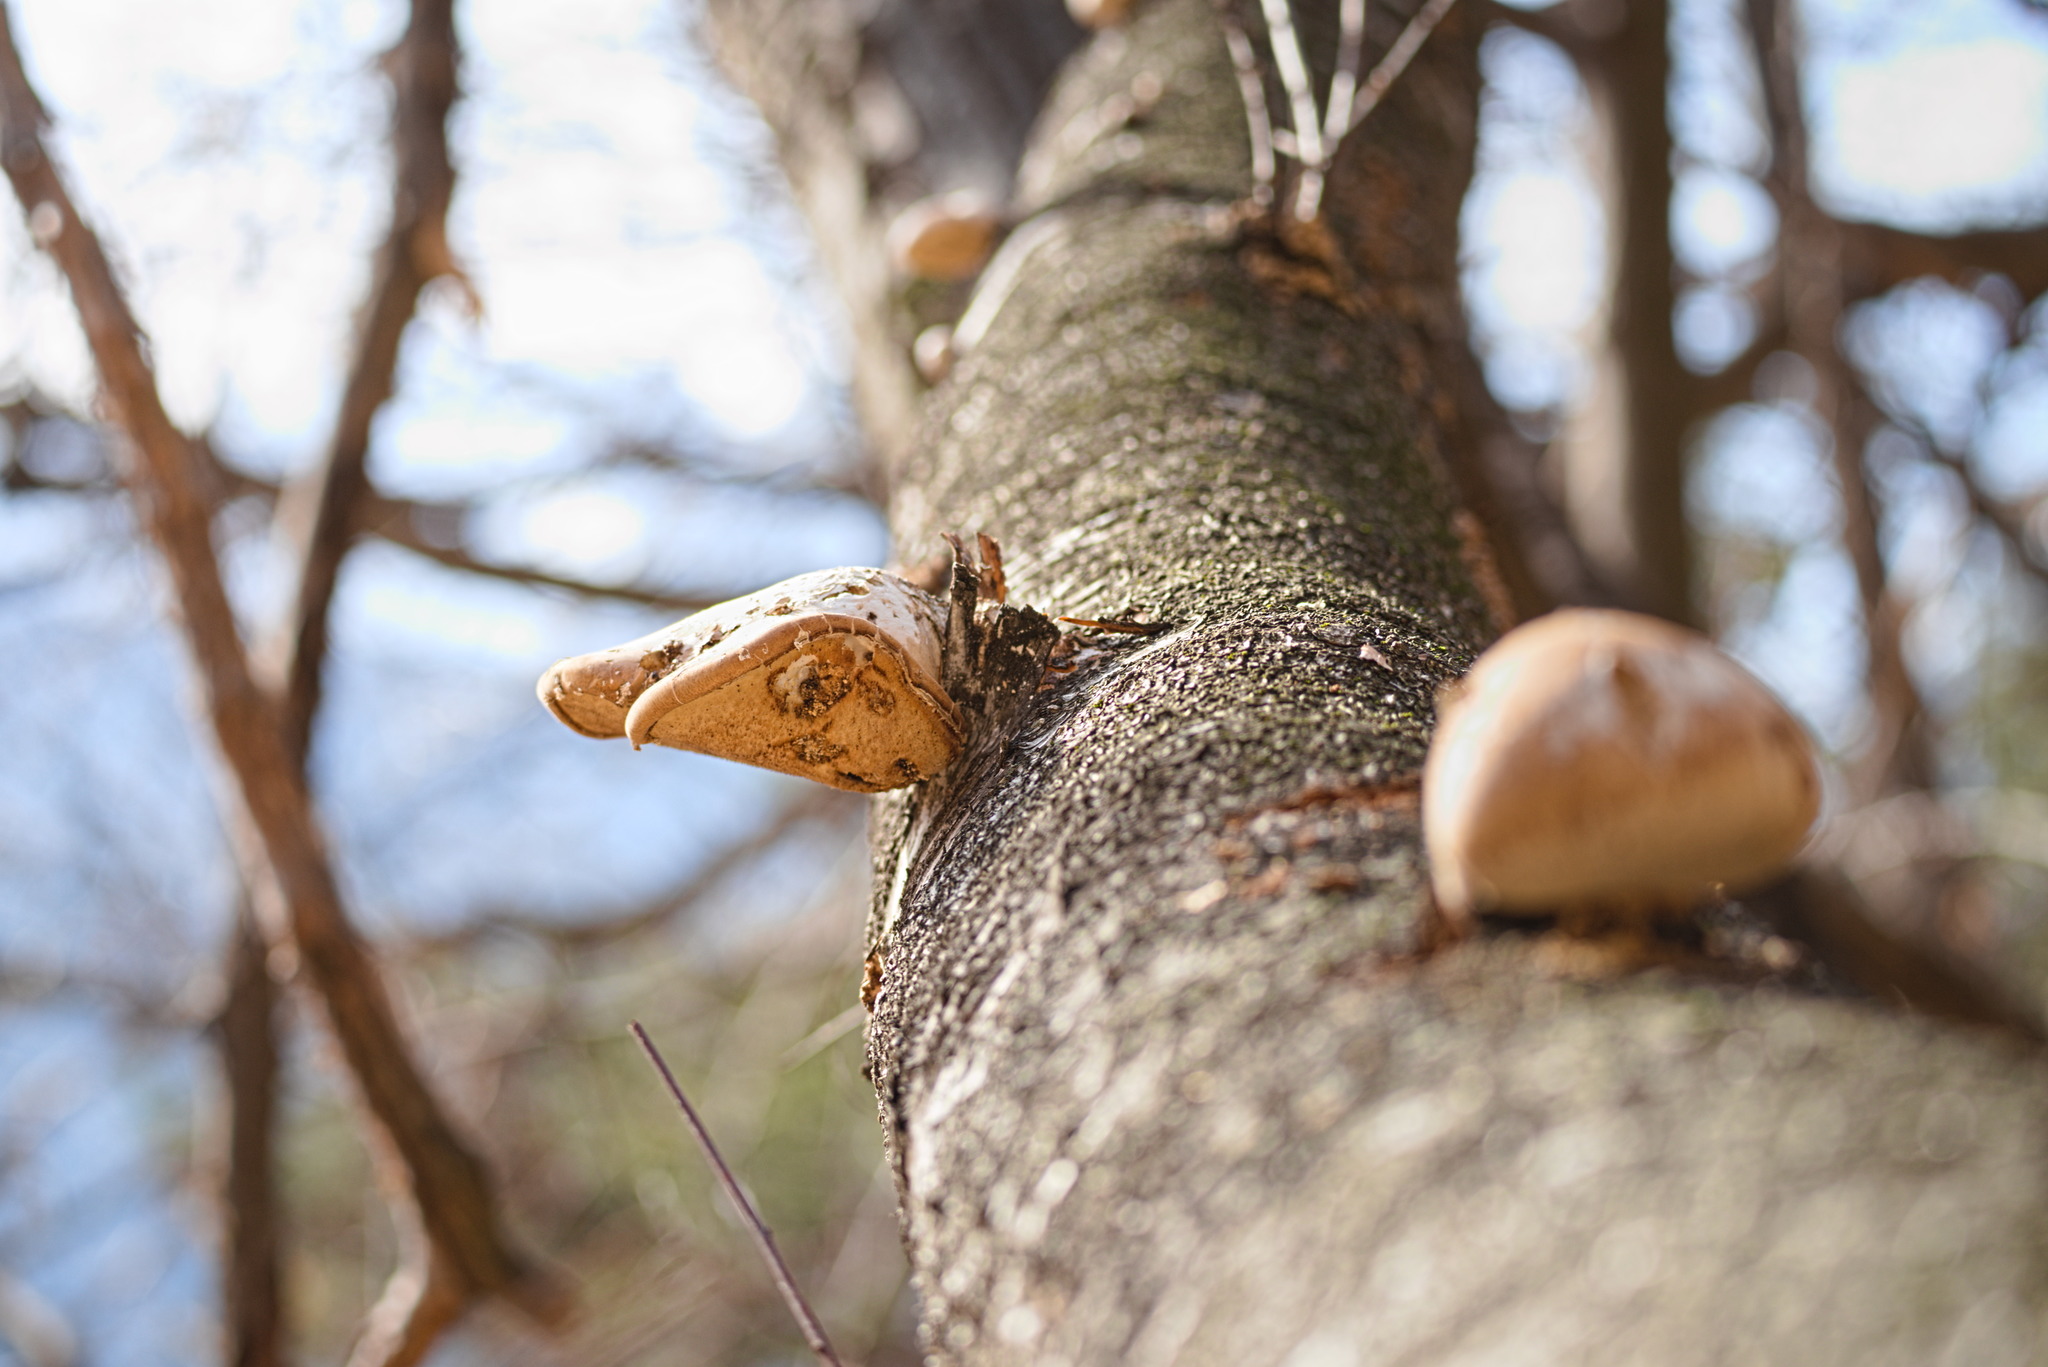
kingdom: Fungi
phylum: Basidiomycota
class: Agaricomycetes
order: Polyporales
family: Fomitopsidaceae
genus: Fomitopsis
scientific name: Fomitopsis betulina
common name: Birch polypore
